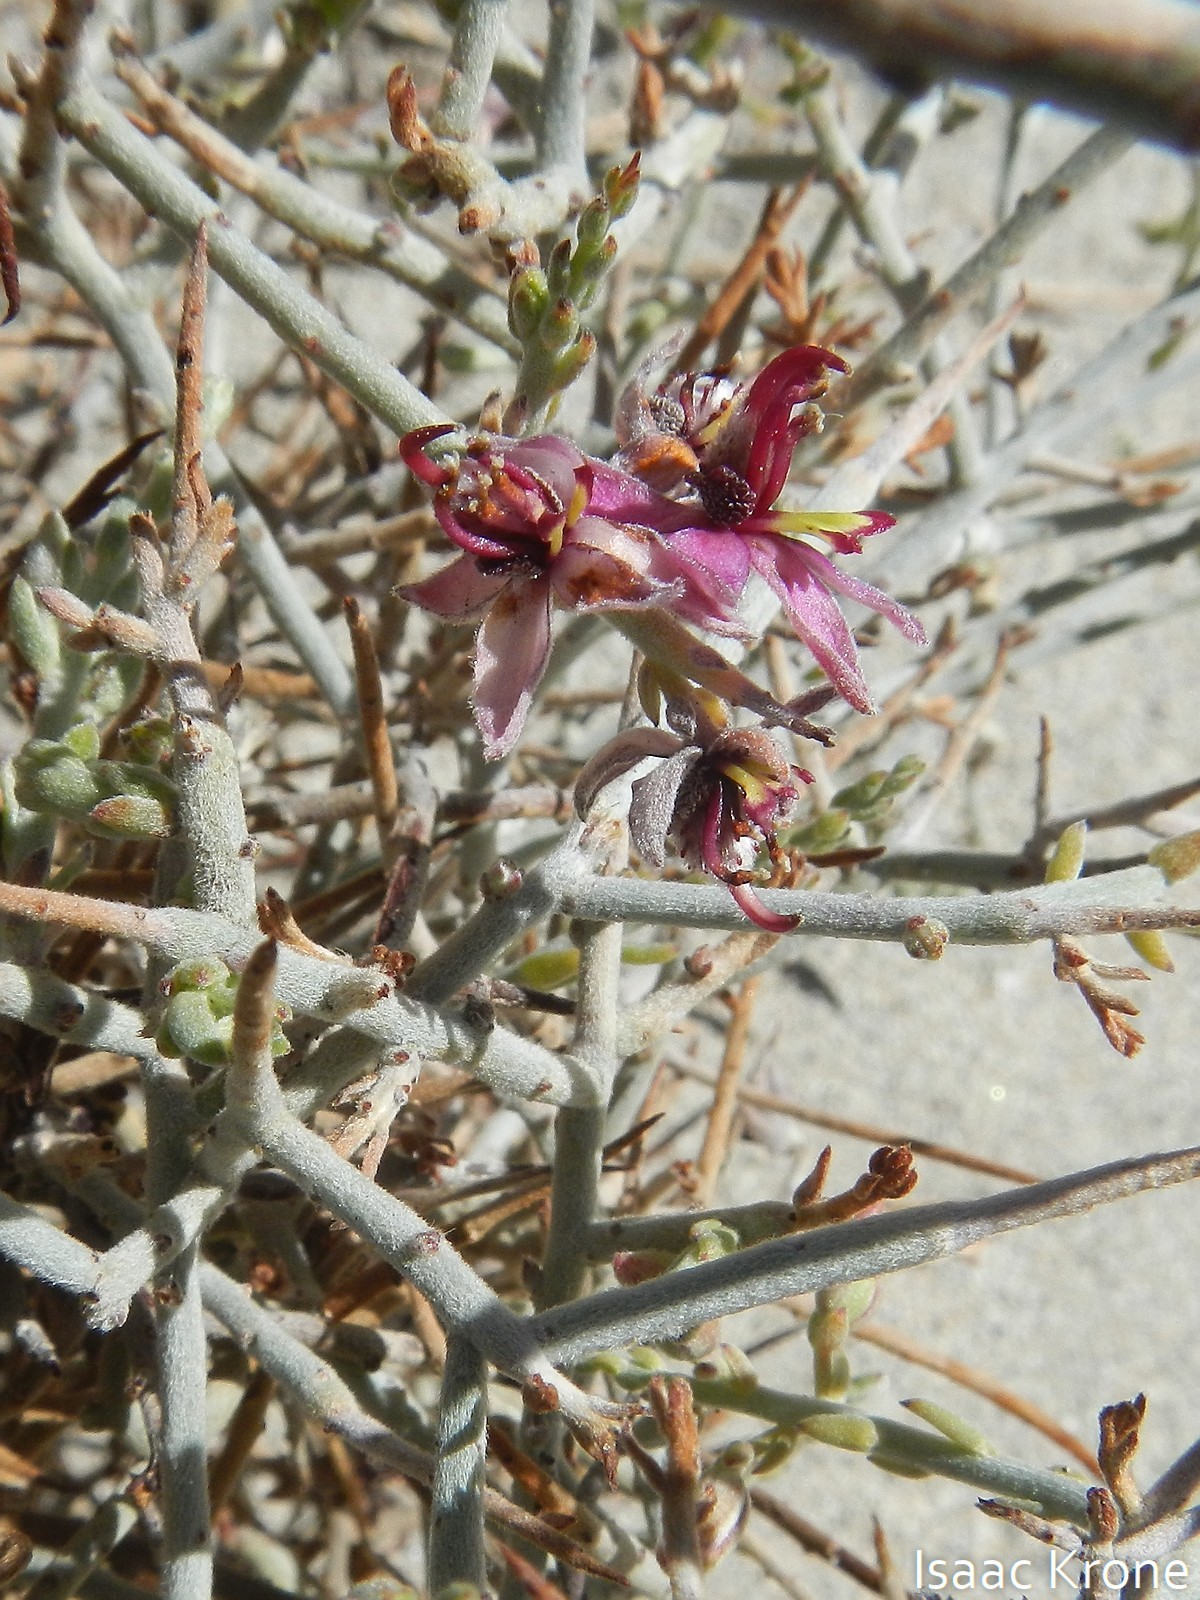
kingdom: Plantae
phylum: Tracheophyta
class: Magnoliopsida
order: Zygophyllales
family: Krameriaceae
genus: Krameria
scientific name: Krameria bicolor
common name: White ratany
